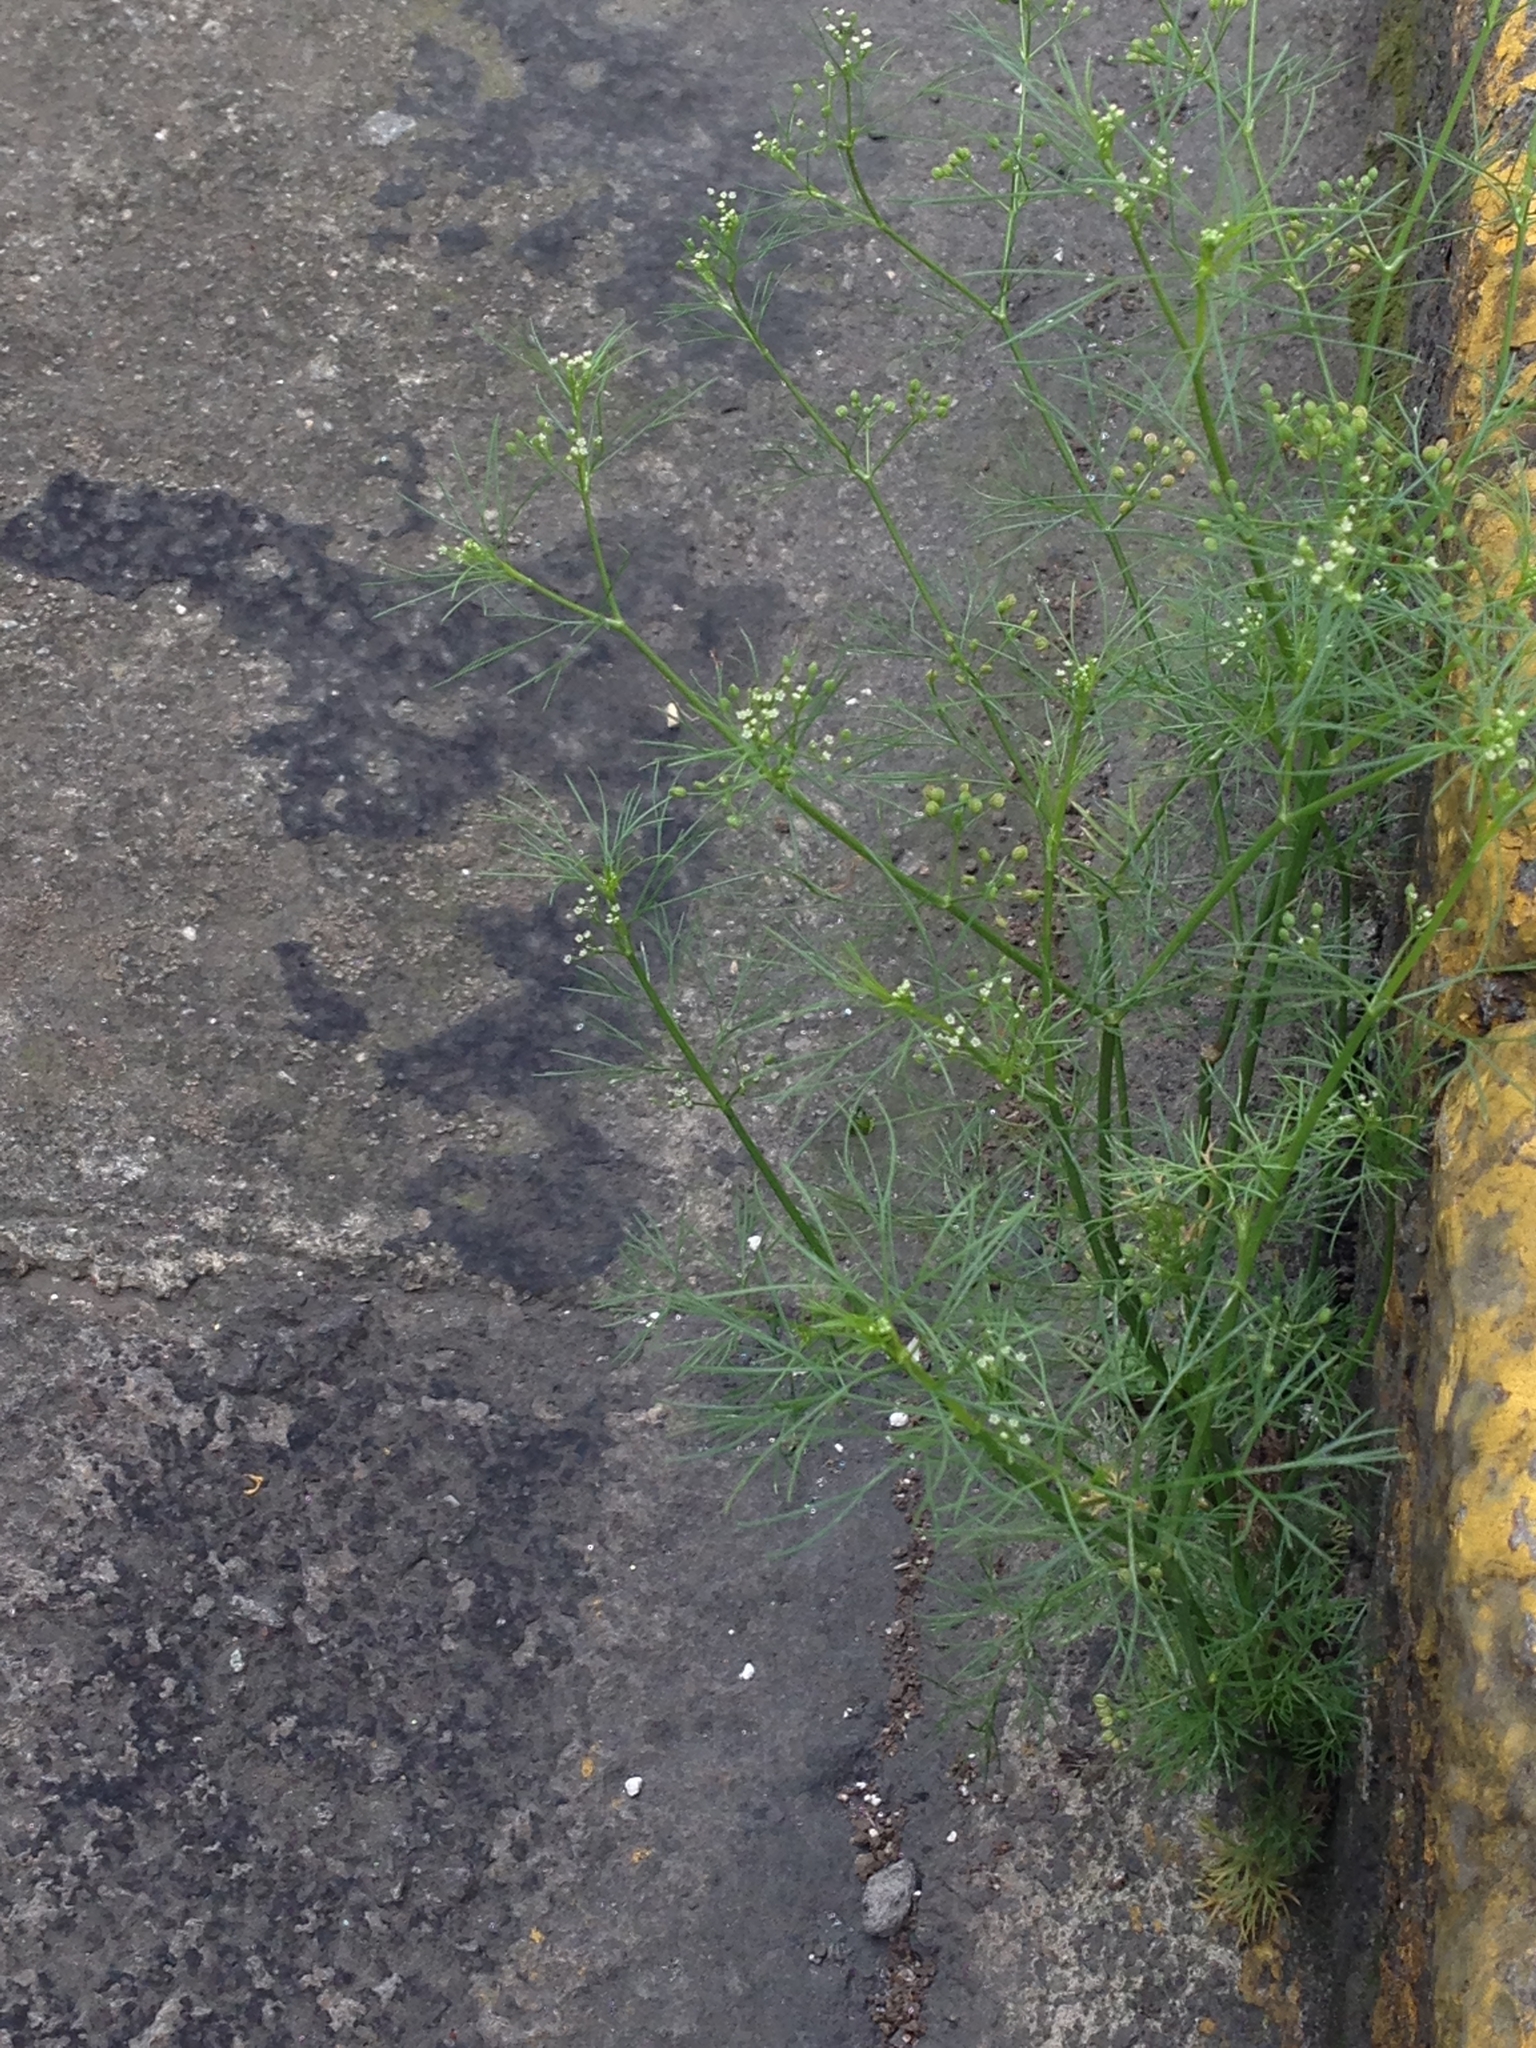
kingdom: Plantae
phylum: Tracheophyta
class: Magnoliopsida
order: Apiales
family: Apiaceae
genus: Cyclospermum
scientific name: Cyclospermum leptophyllum
